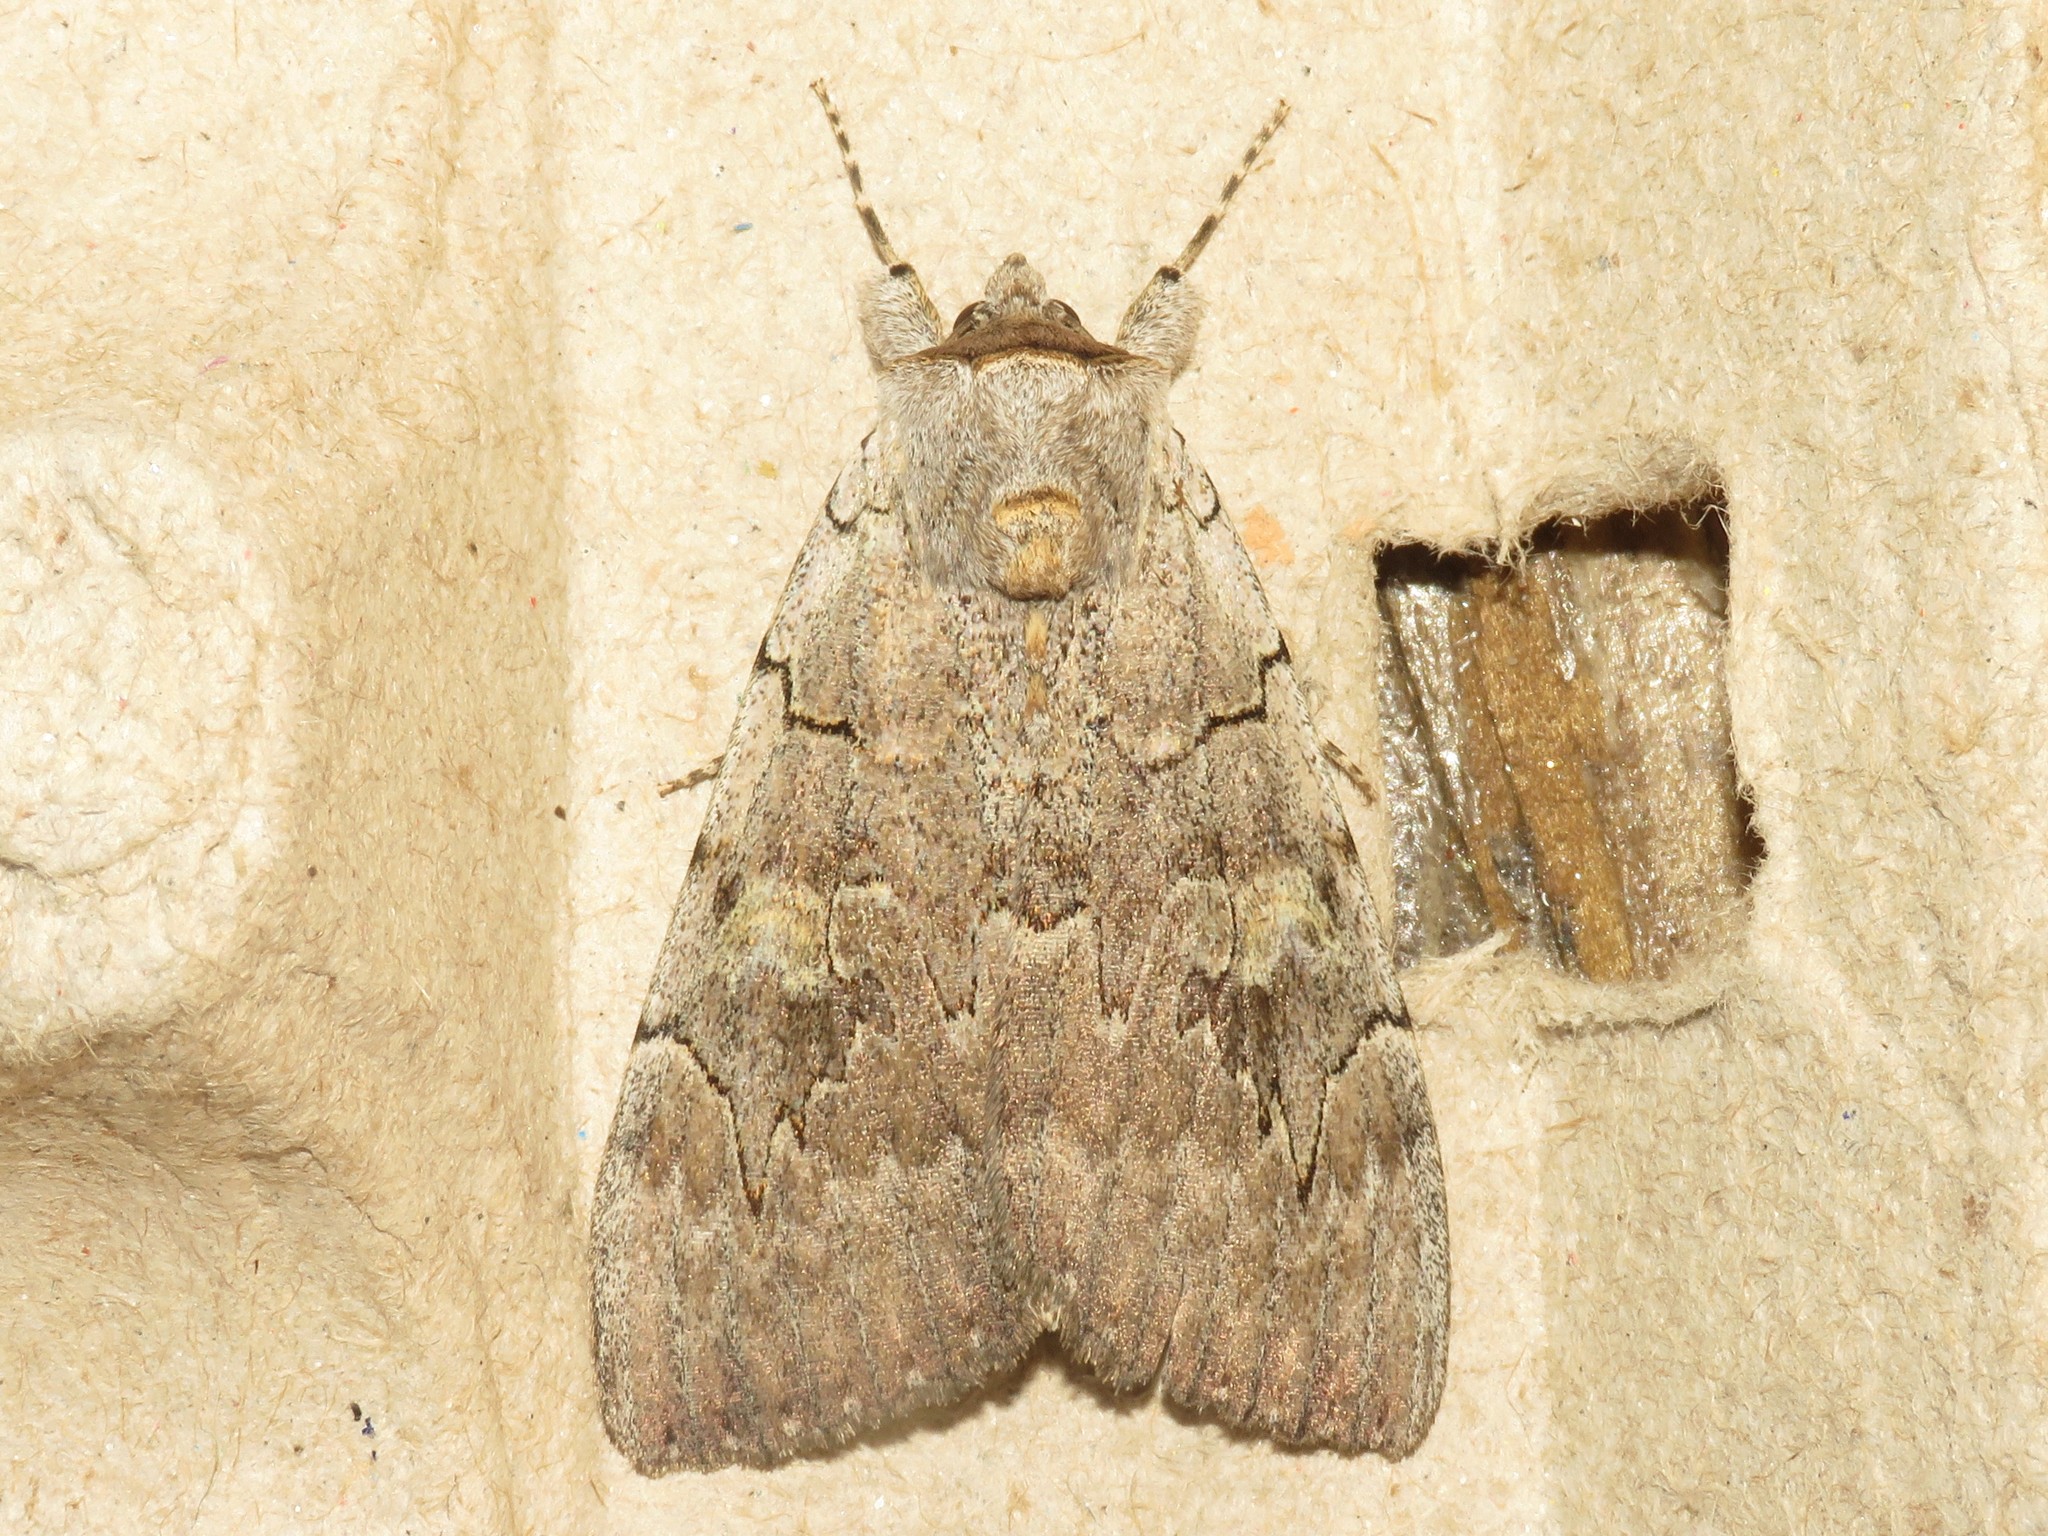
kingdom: Animalia
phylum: Arthropoda
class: Insecta
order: Lepidoptera
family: Erebidae
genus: Catocala
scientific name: Catocala concumbens
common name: Pink underwing
